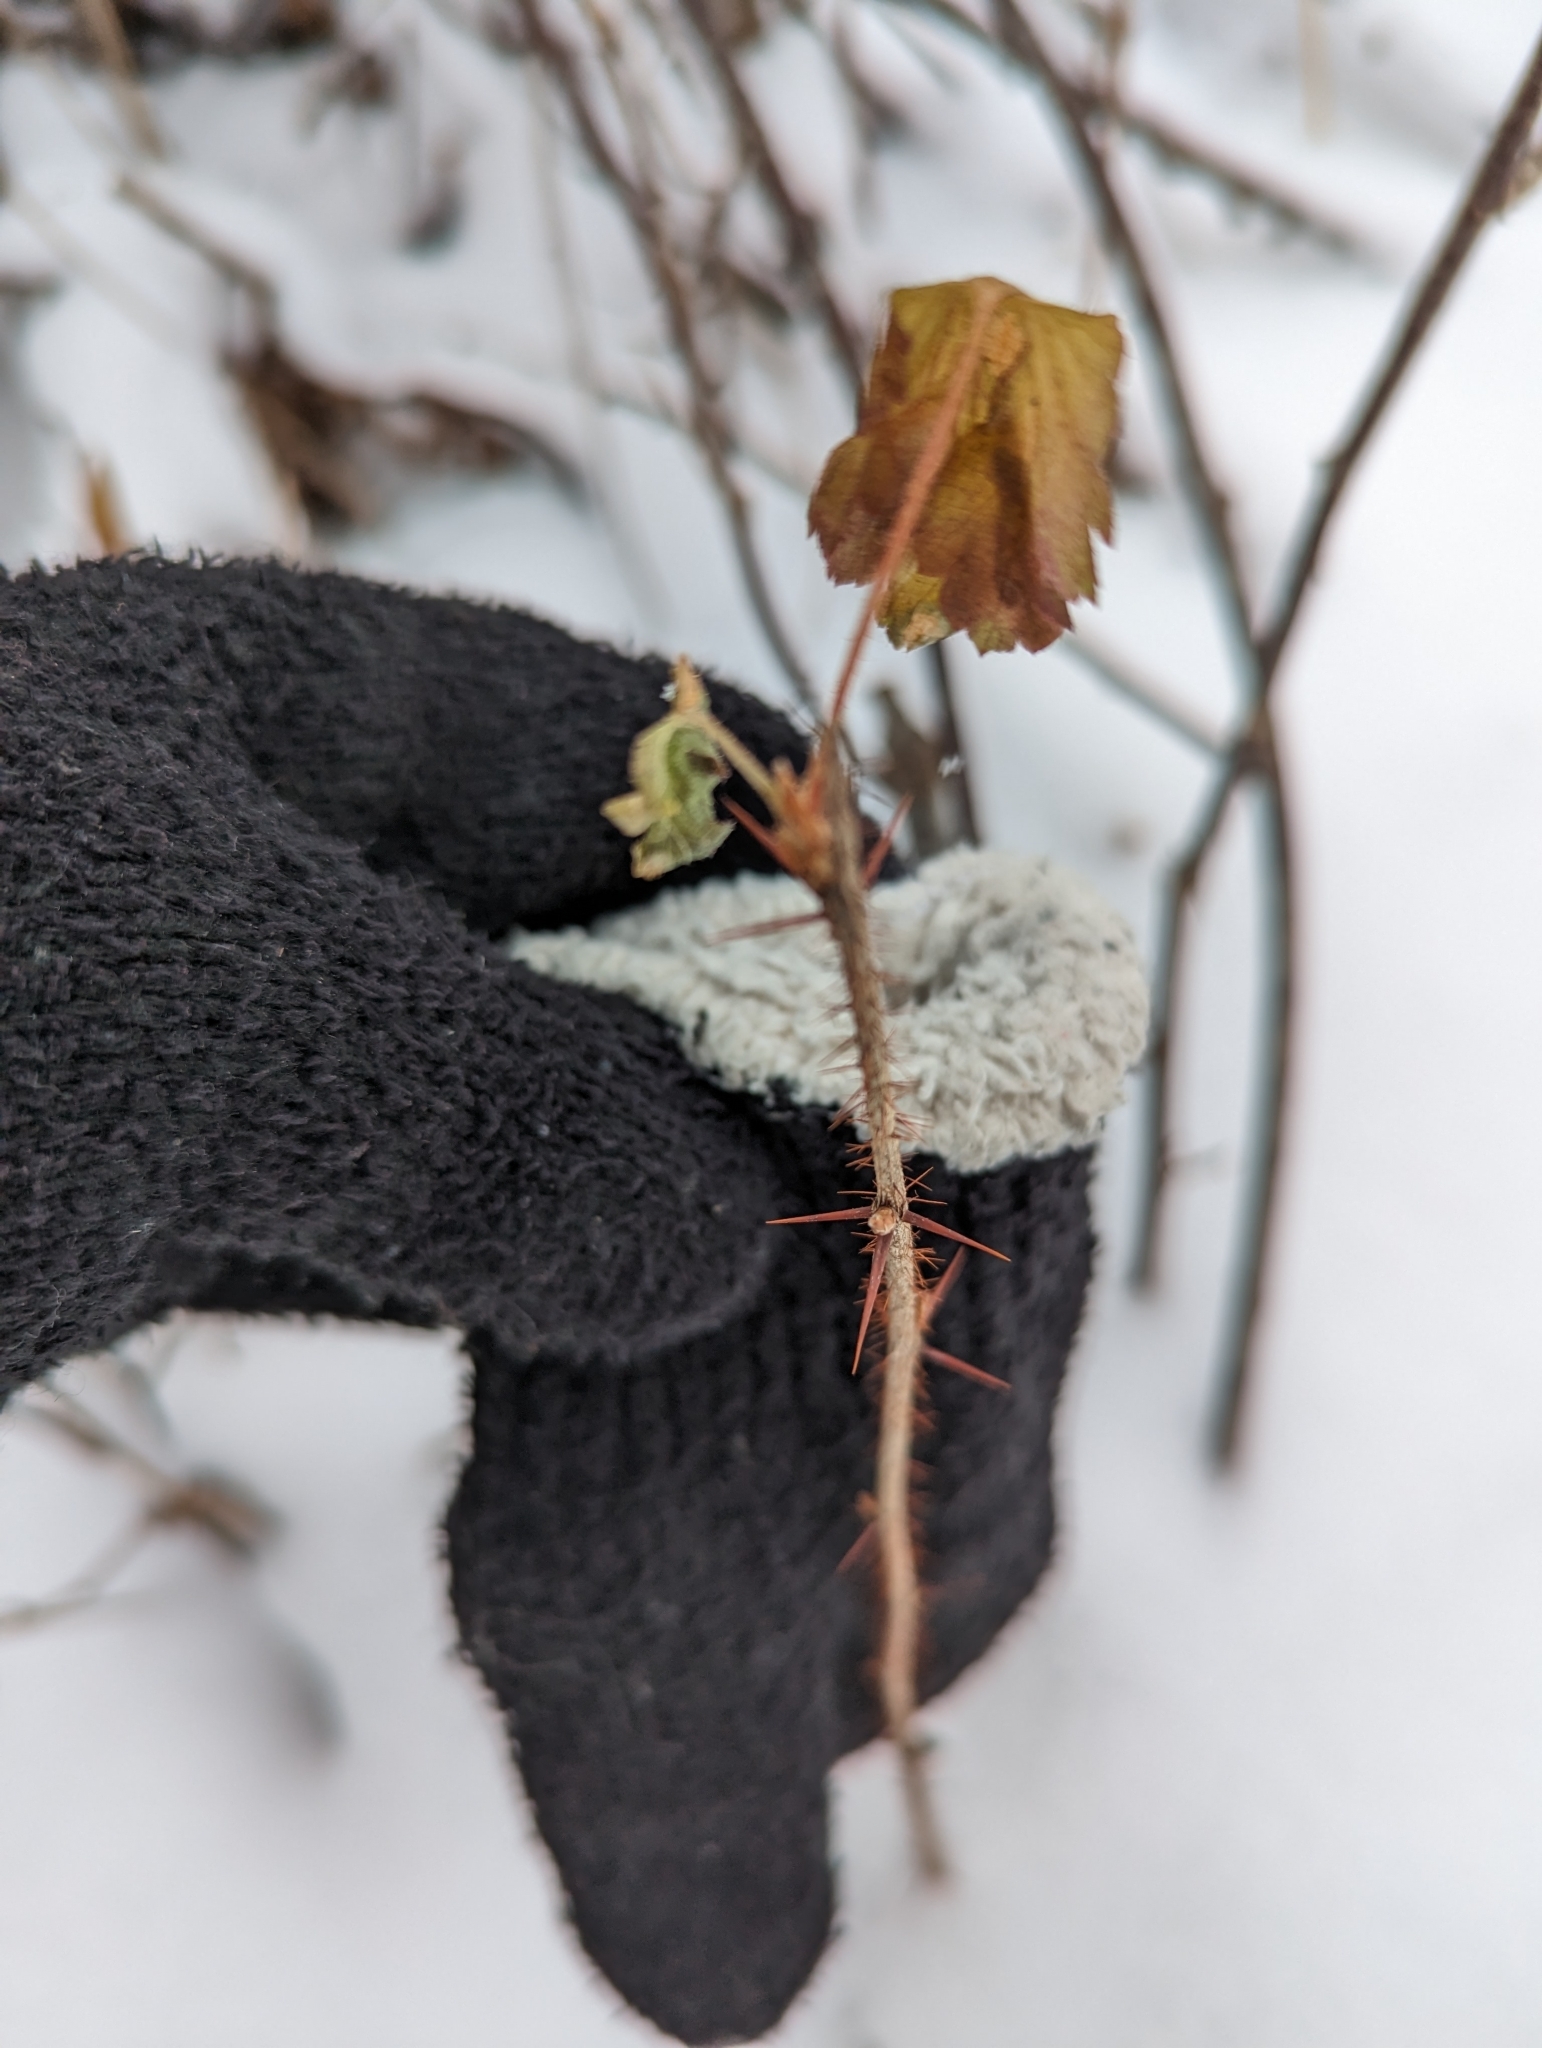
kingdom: Plantae
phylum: Tracheophyta
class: Magnoliopsida
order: Saxifragales
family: Grossulariaceae
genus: Ribes
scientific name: Ribes cynosbati
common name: American gooseberry
